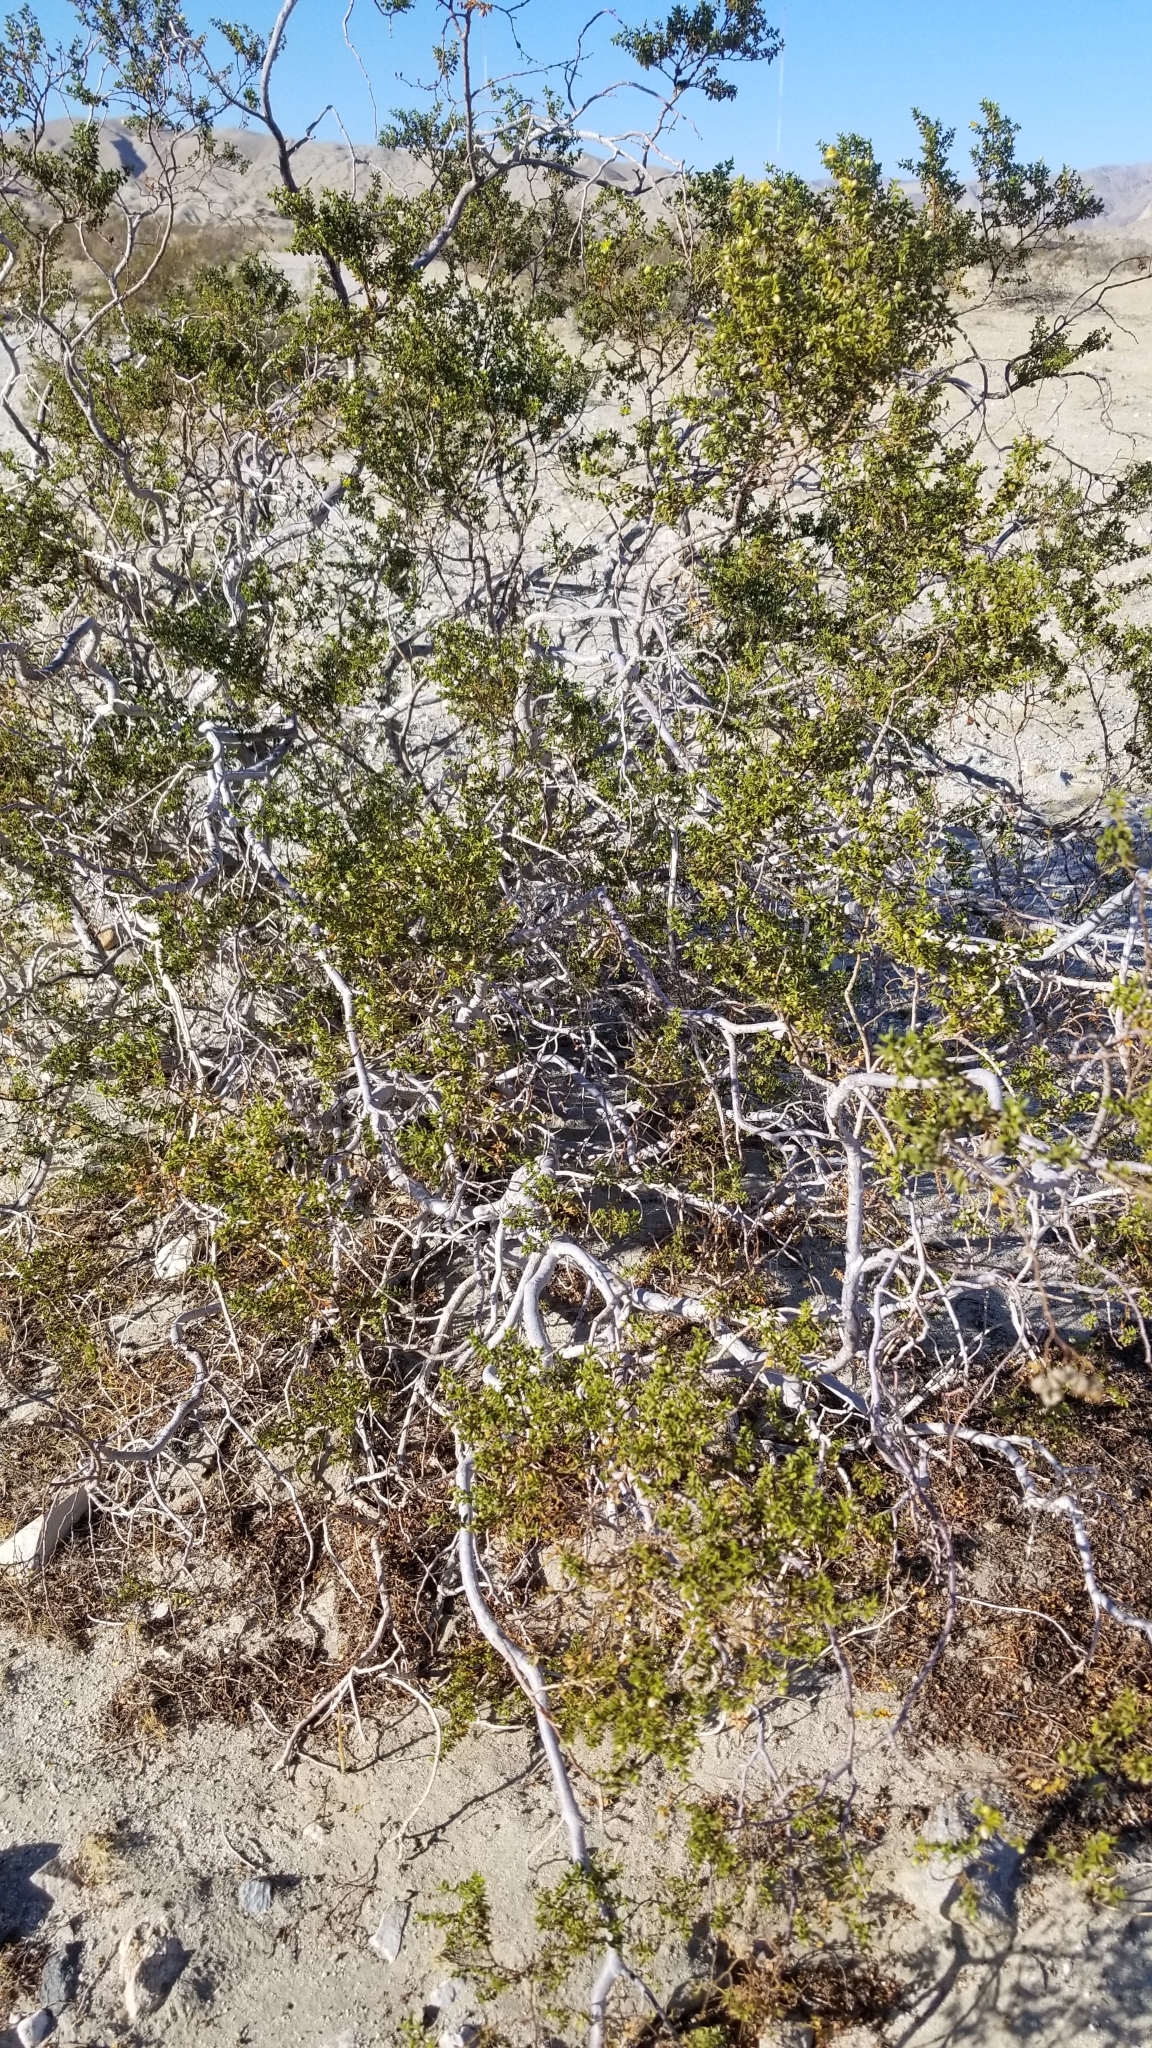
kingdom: Plantae
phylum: Tracheophyta
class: Magnoliopsida
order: Zygophyllales
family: Zygophyllaceae
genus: Larrea
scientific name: Larrea tridentata
